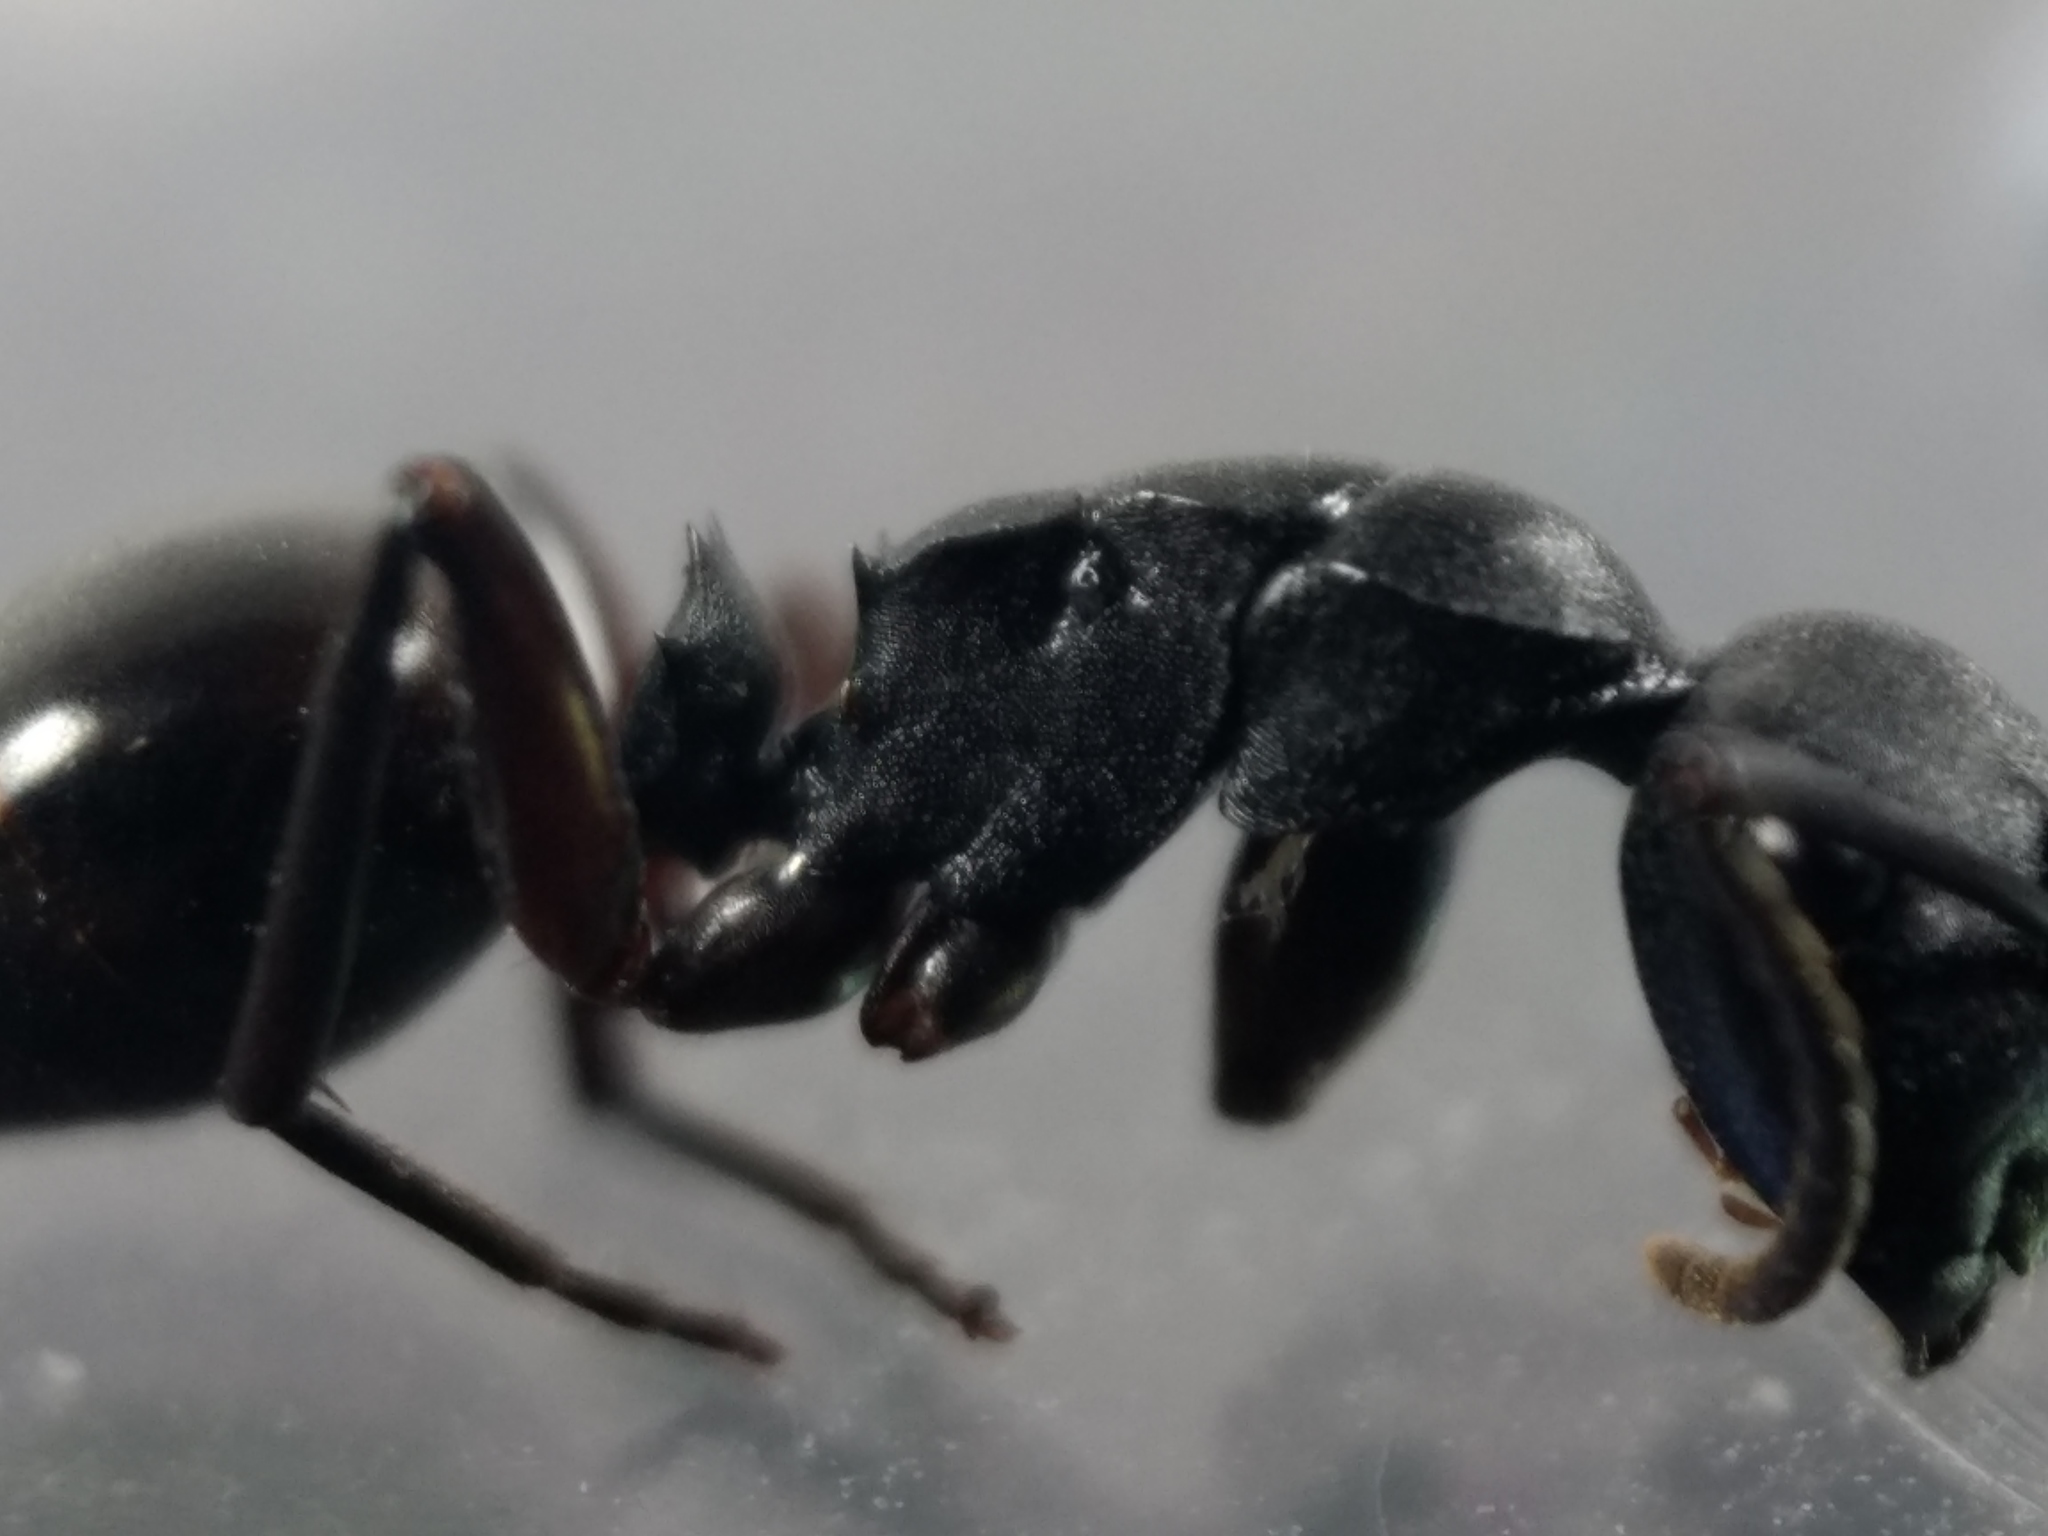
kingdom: Animalia
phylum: Arthropoda
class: Insecta
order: Hymenoptera
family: Formicidae
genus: Polyrhachis
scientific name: Polyrhachis templi
